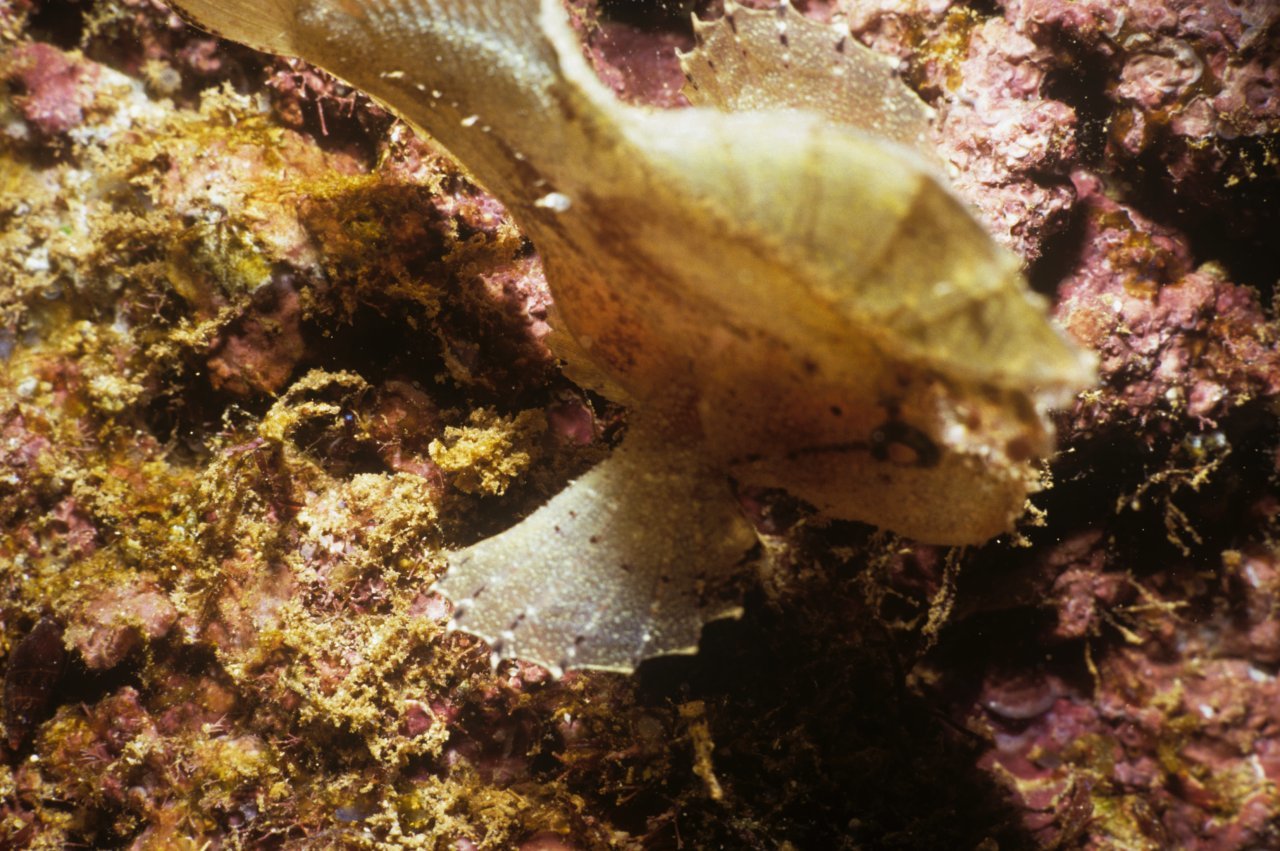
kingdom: Animalia
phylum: Chordata
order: Scorpaeniformes
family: Scorpaenidae
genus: Taenianotus
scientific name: Taenianotus triacanthus
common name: Leaf scorpionfish
